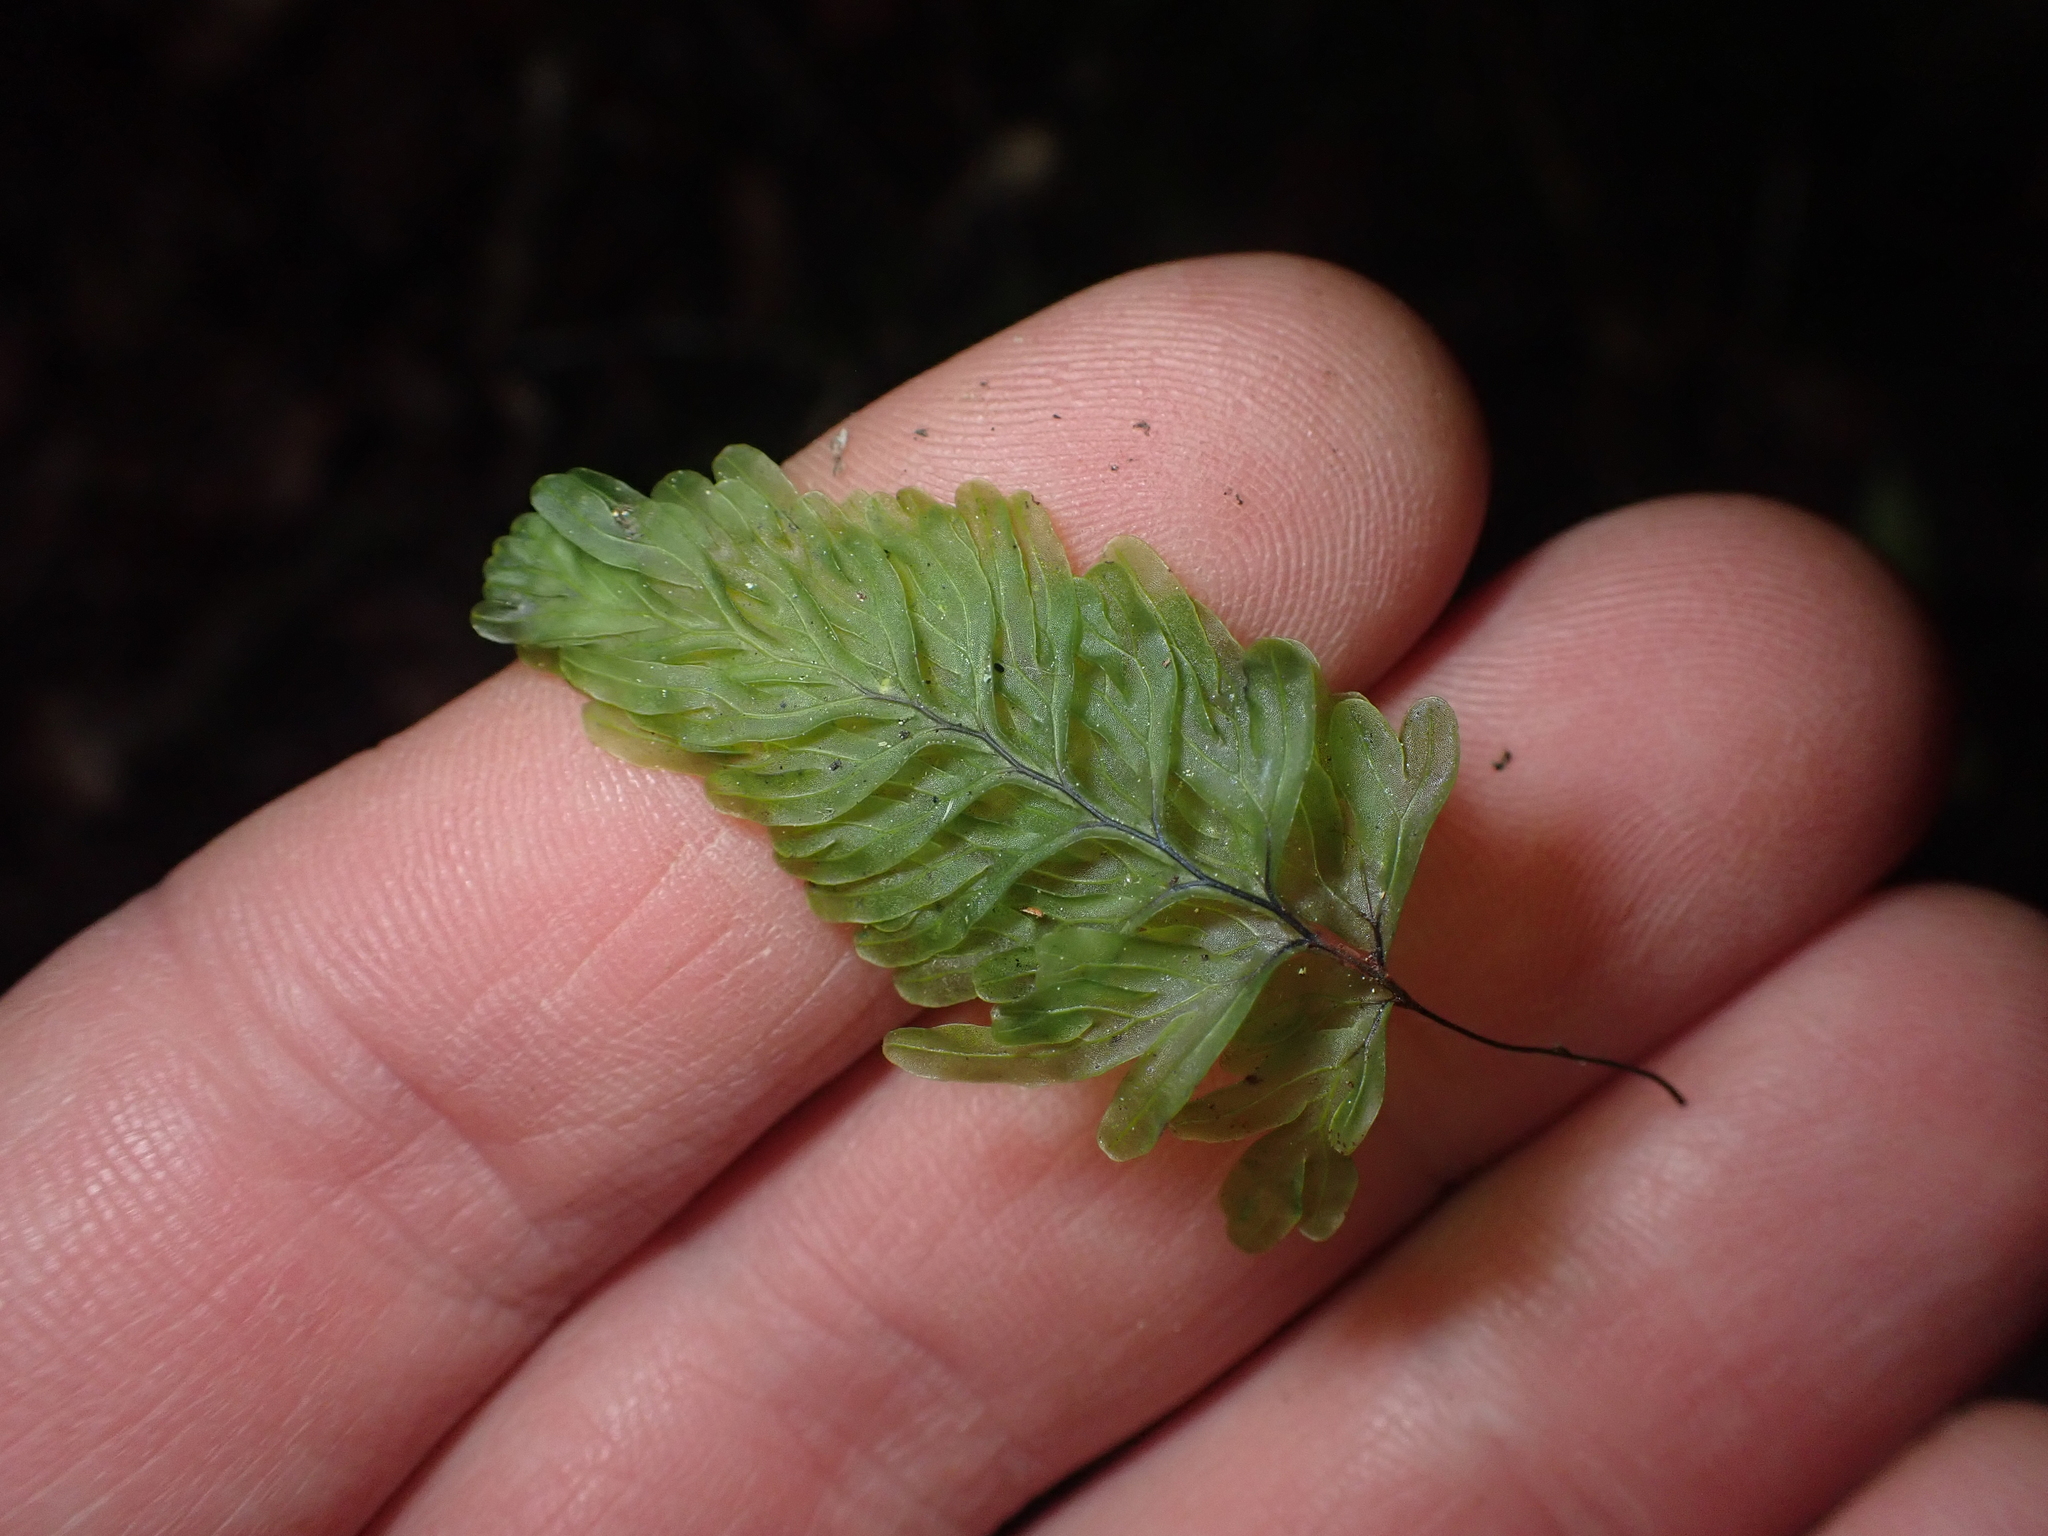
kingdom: Plantae
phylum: Tracheophyta
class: Polypodiopsida
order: Hymenophyllales
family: Hymenophyllaceae
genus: Hymenophyllum
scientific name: Hymenophyllum rarum
